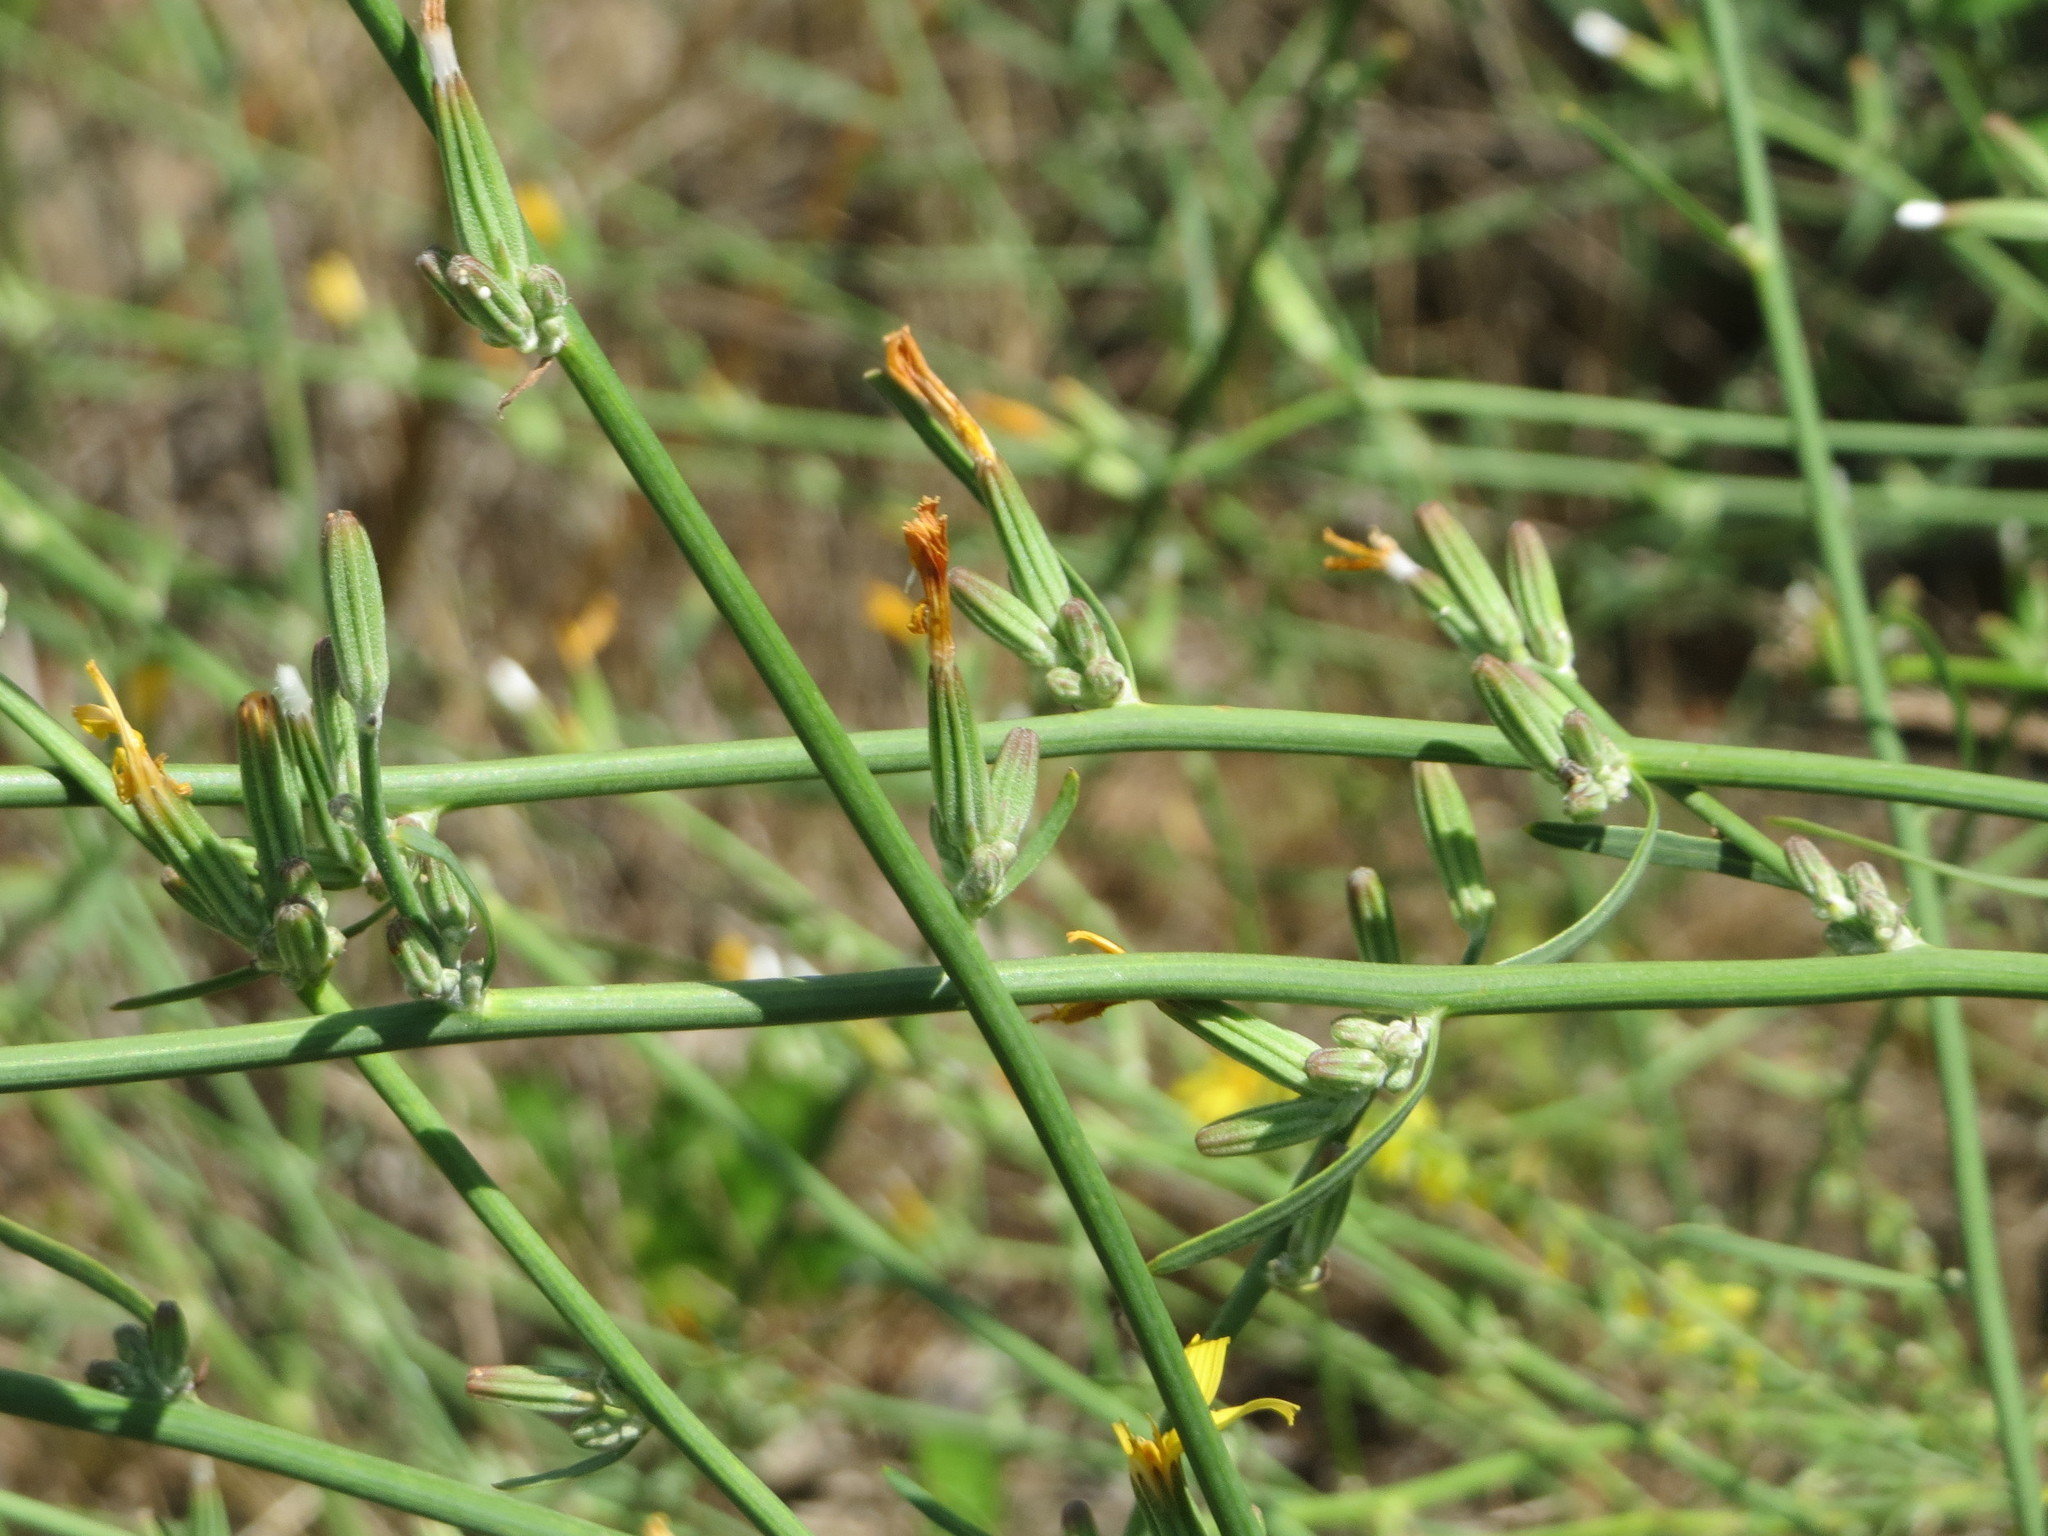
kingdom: Plantae
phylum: Tracheophyta
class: Magnoliopsida
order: Asterales
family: Asteraceae
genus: Chondrilla
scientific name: Chondrilla juncea
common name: Skeleton weed
